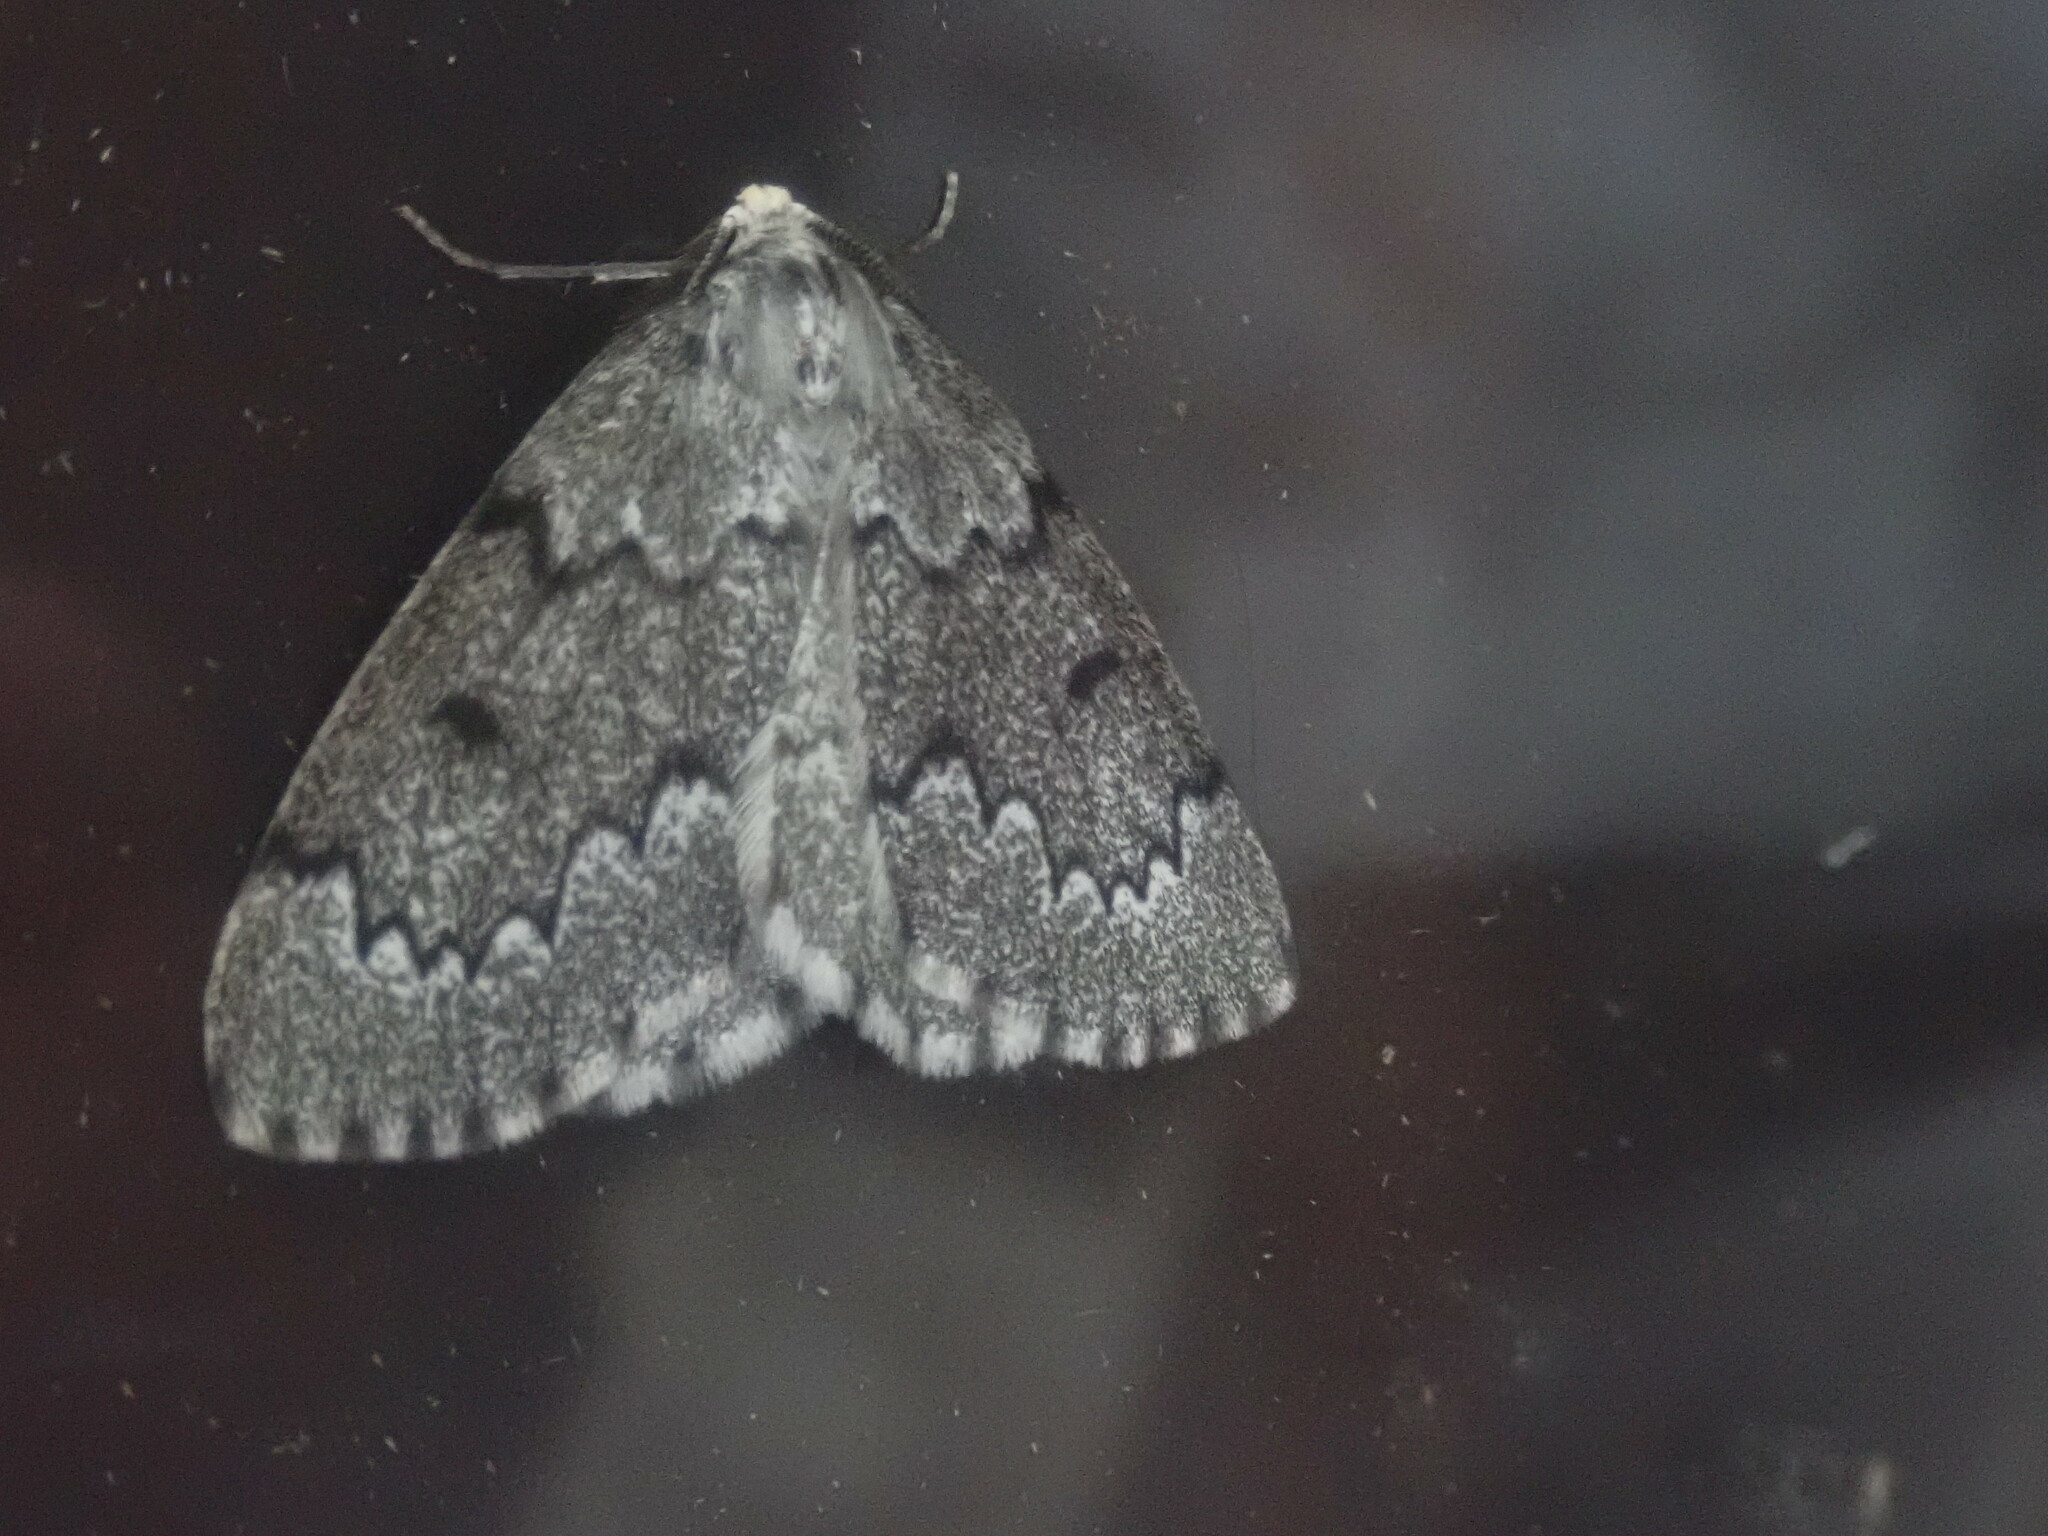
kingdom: Animalia
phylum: Arthropoda
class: Insecta
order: Lepidoptera
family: Geometridae
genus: Nepytia
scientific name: Nepytia canosaria
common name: False hemlock looper
